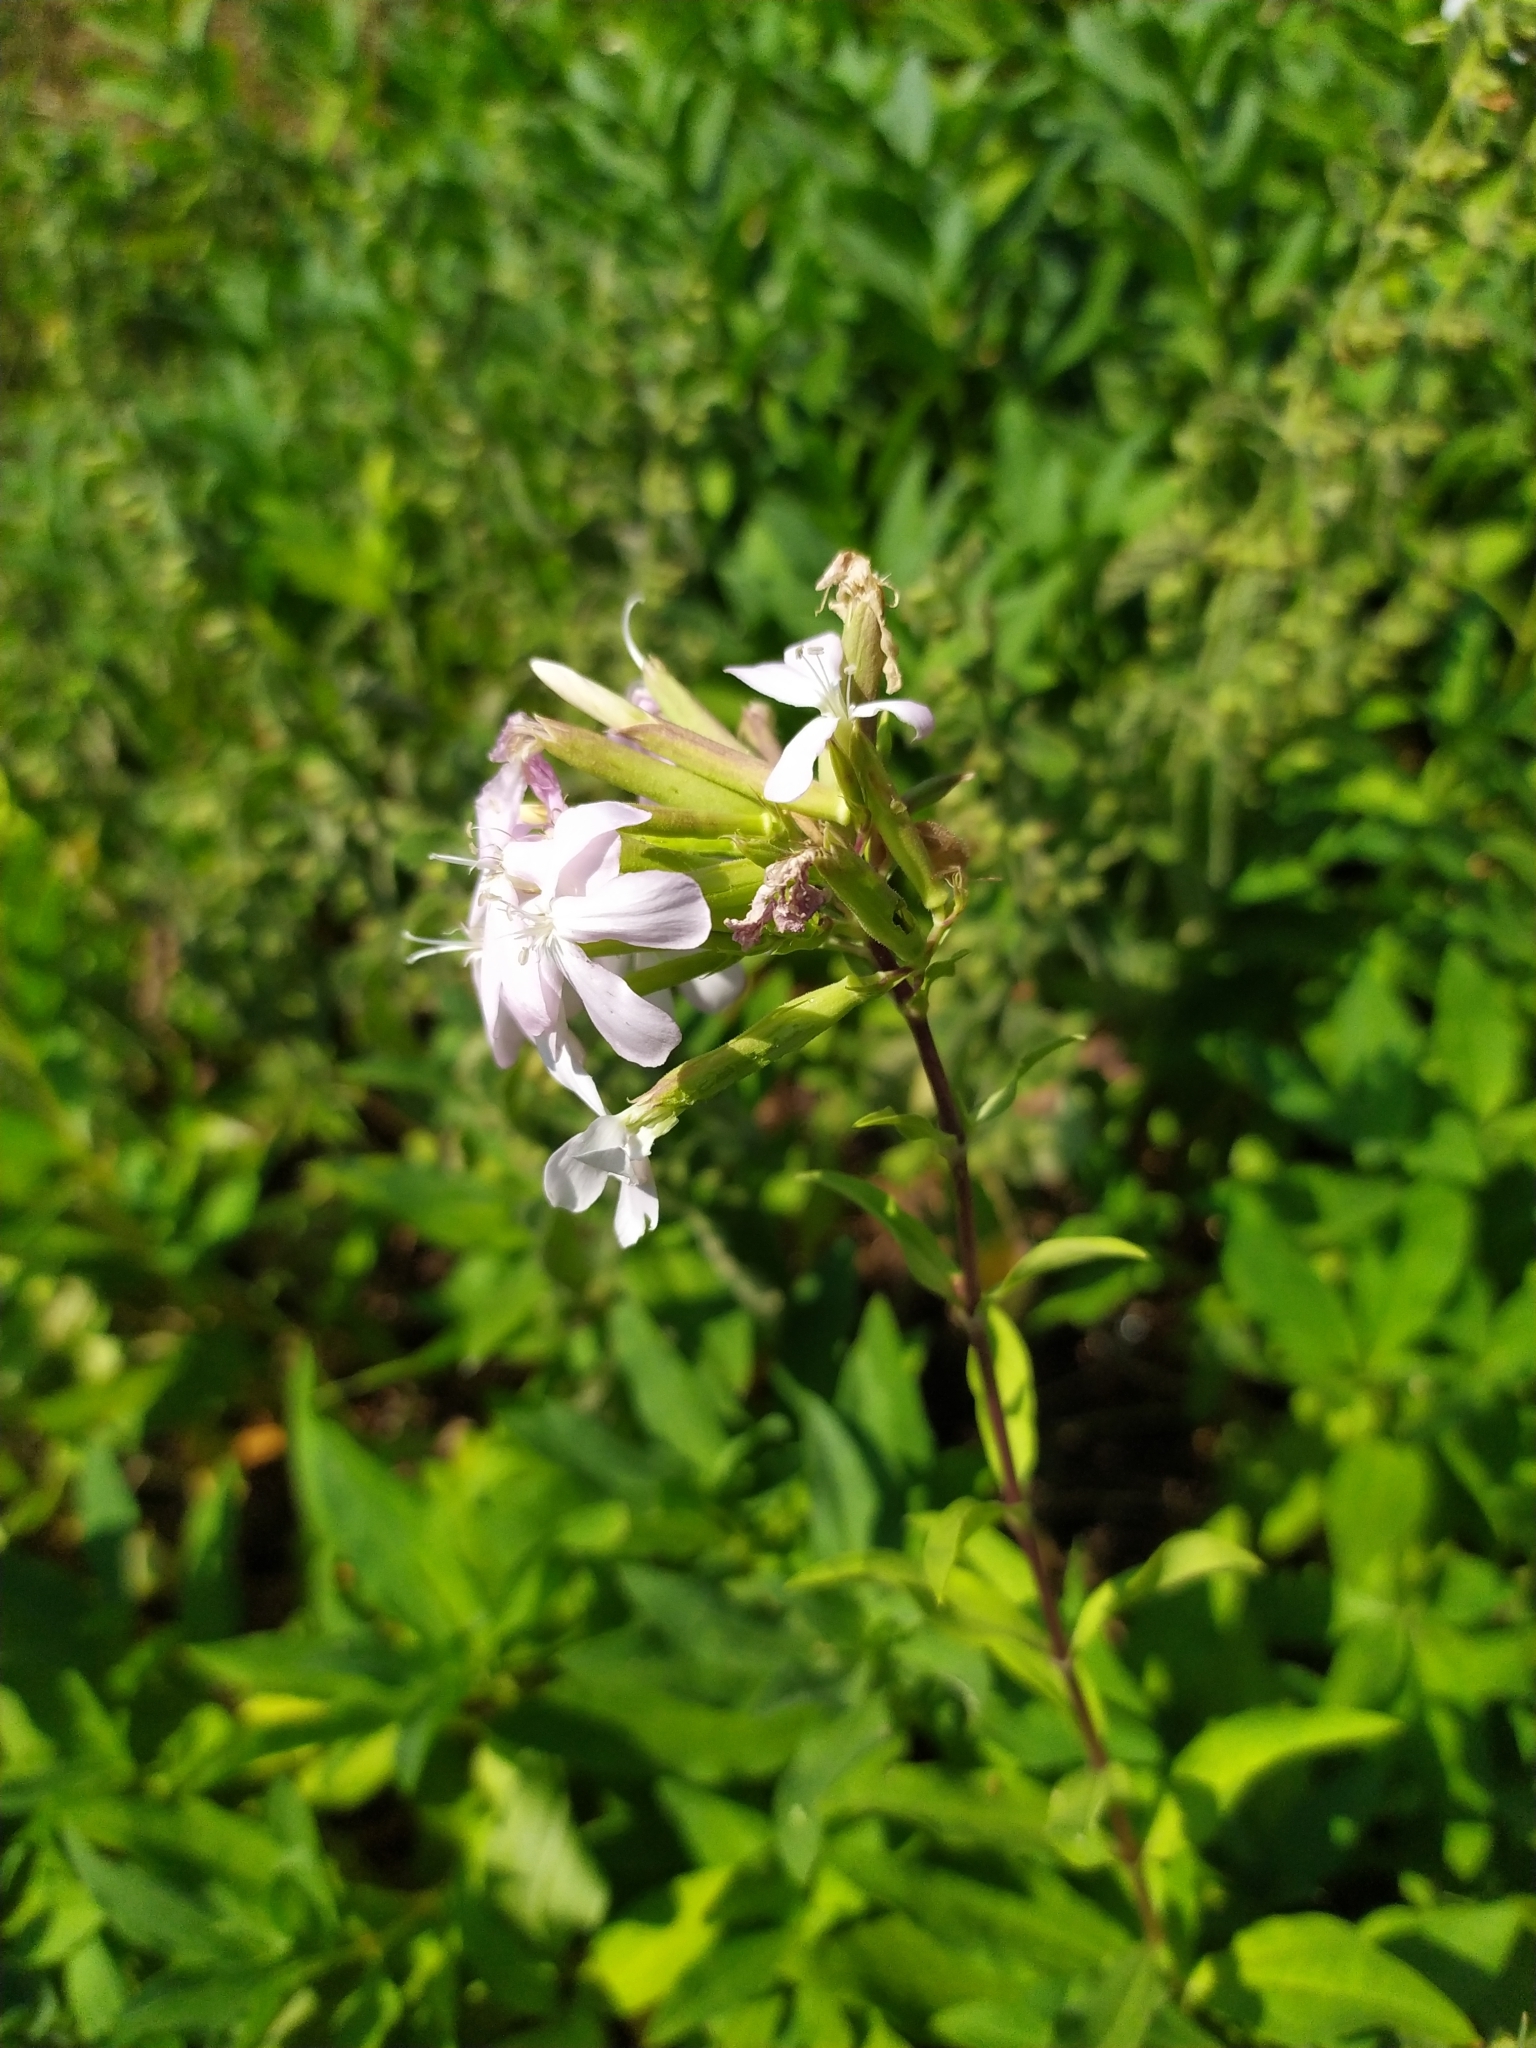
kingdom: Plantae
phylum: Tracheophyta
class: Magnoliopsida
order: Caryophyllales
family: Caryophyllaceae
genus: Saponaria
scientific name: Saponaria officinalis
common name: Soapwort
